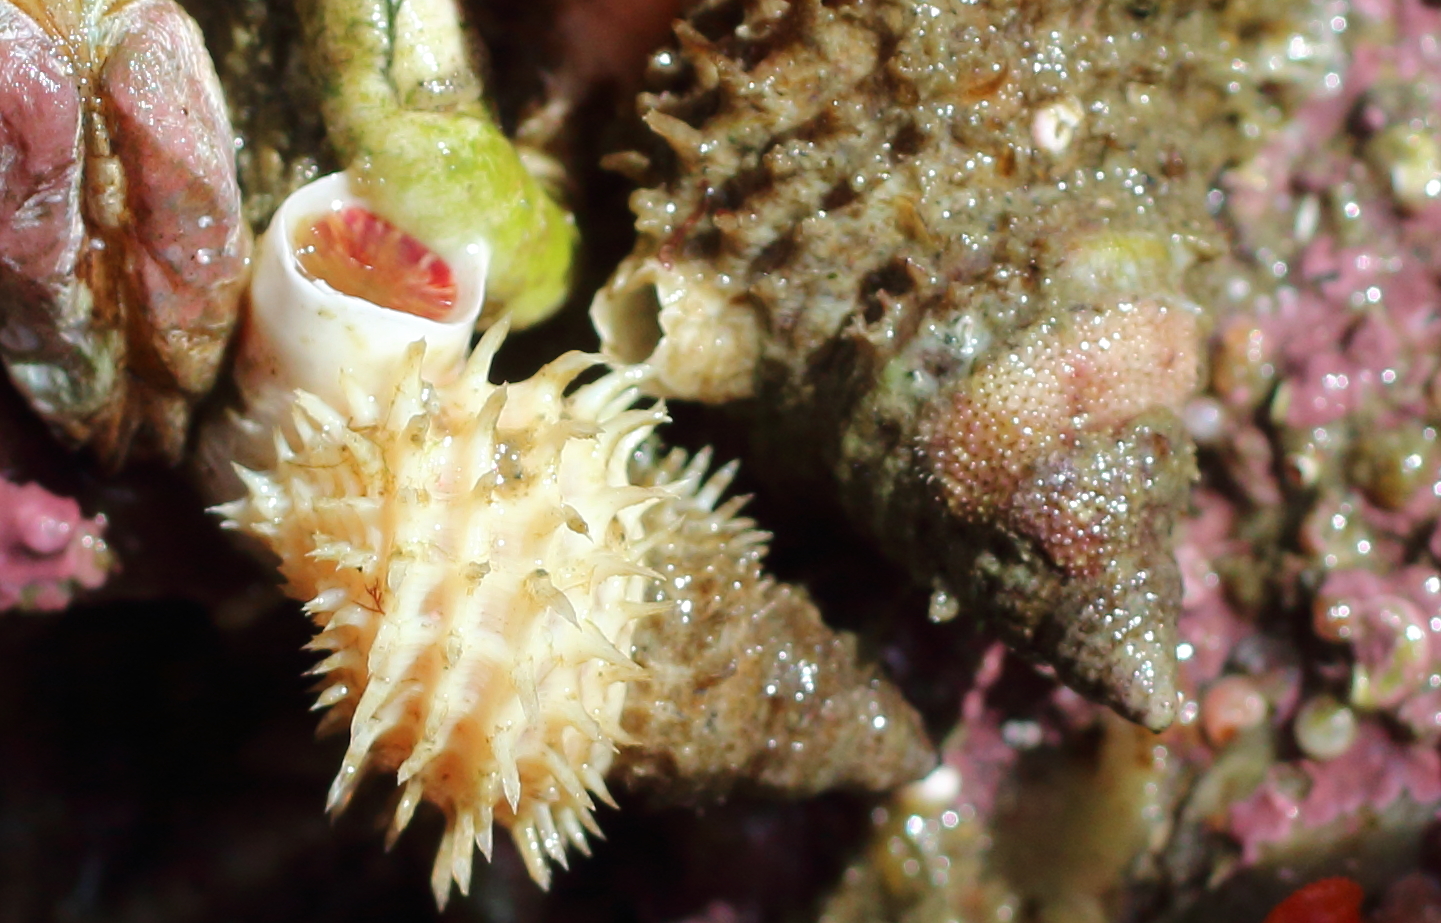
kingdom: Animalia
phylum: Mollusca
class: Gastropoda
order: Littorinimorpha
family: Capulidae
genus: Trichotropis
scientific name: Trichotropis cancellata
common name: Cancellate hairysnail
